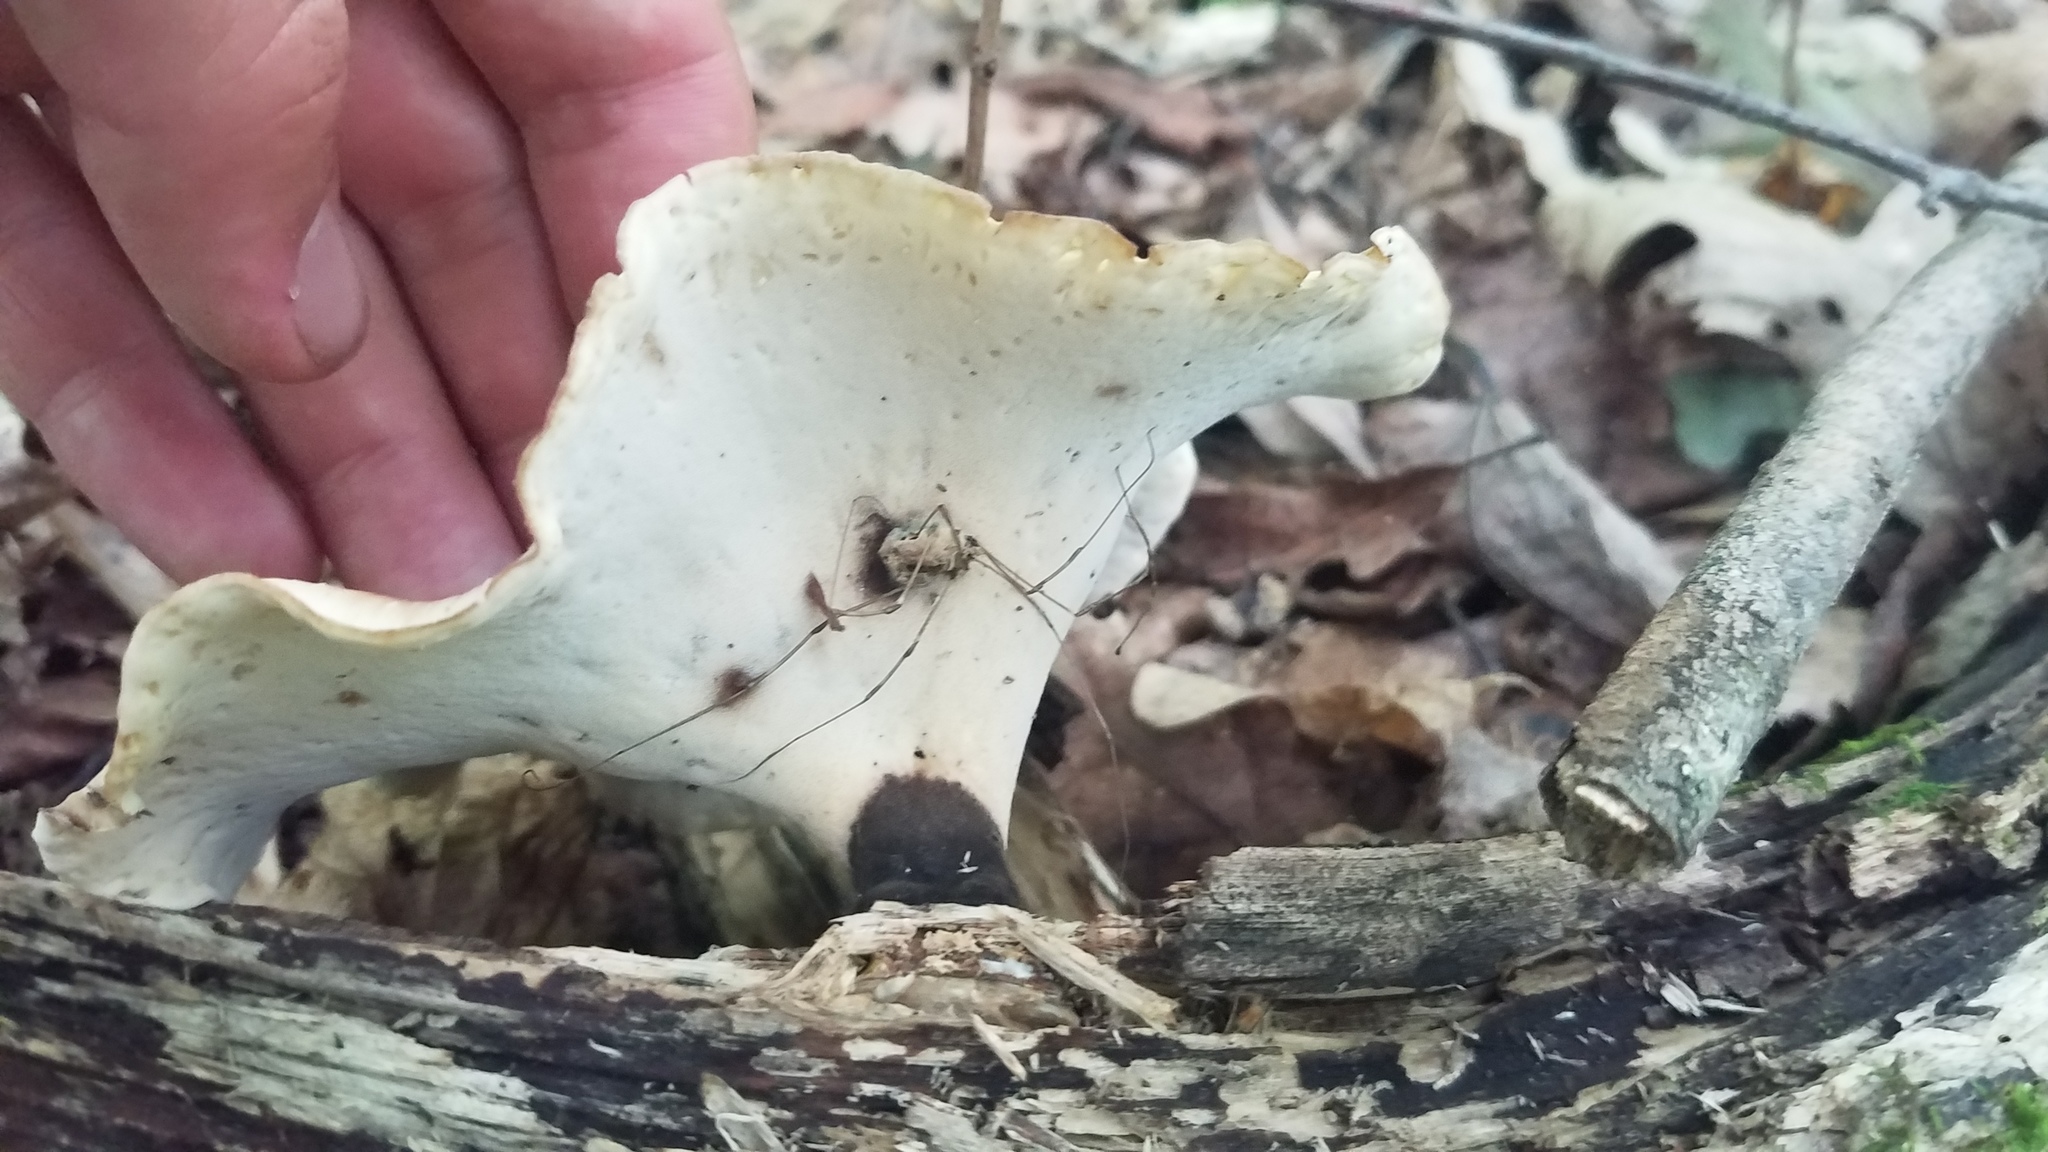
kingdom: Fungi
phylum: Basidiomycota
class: Agaricomycetes
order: Polyporales
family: Polyporaceae
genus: Picipes
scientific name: Picipes badius
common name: Bay polypore
